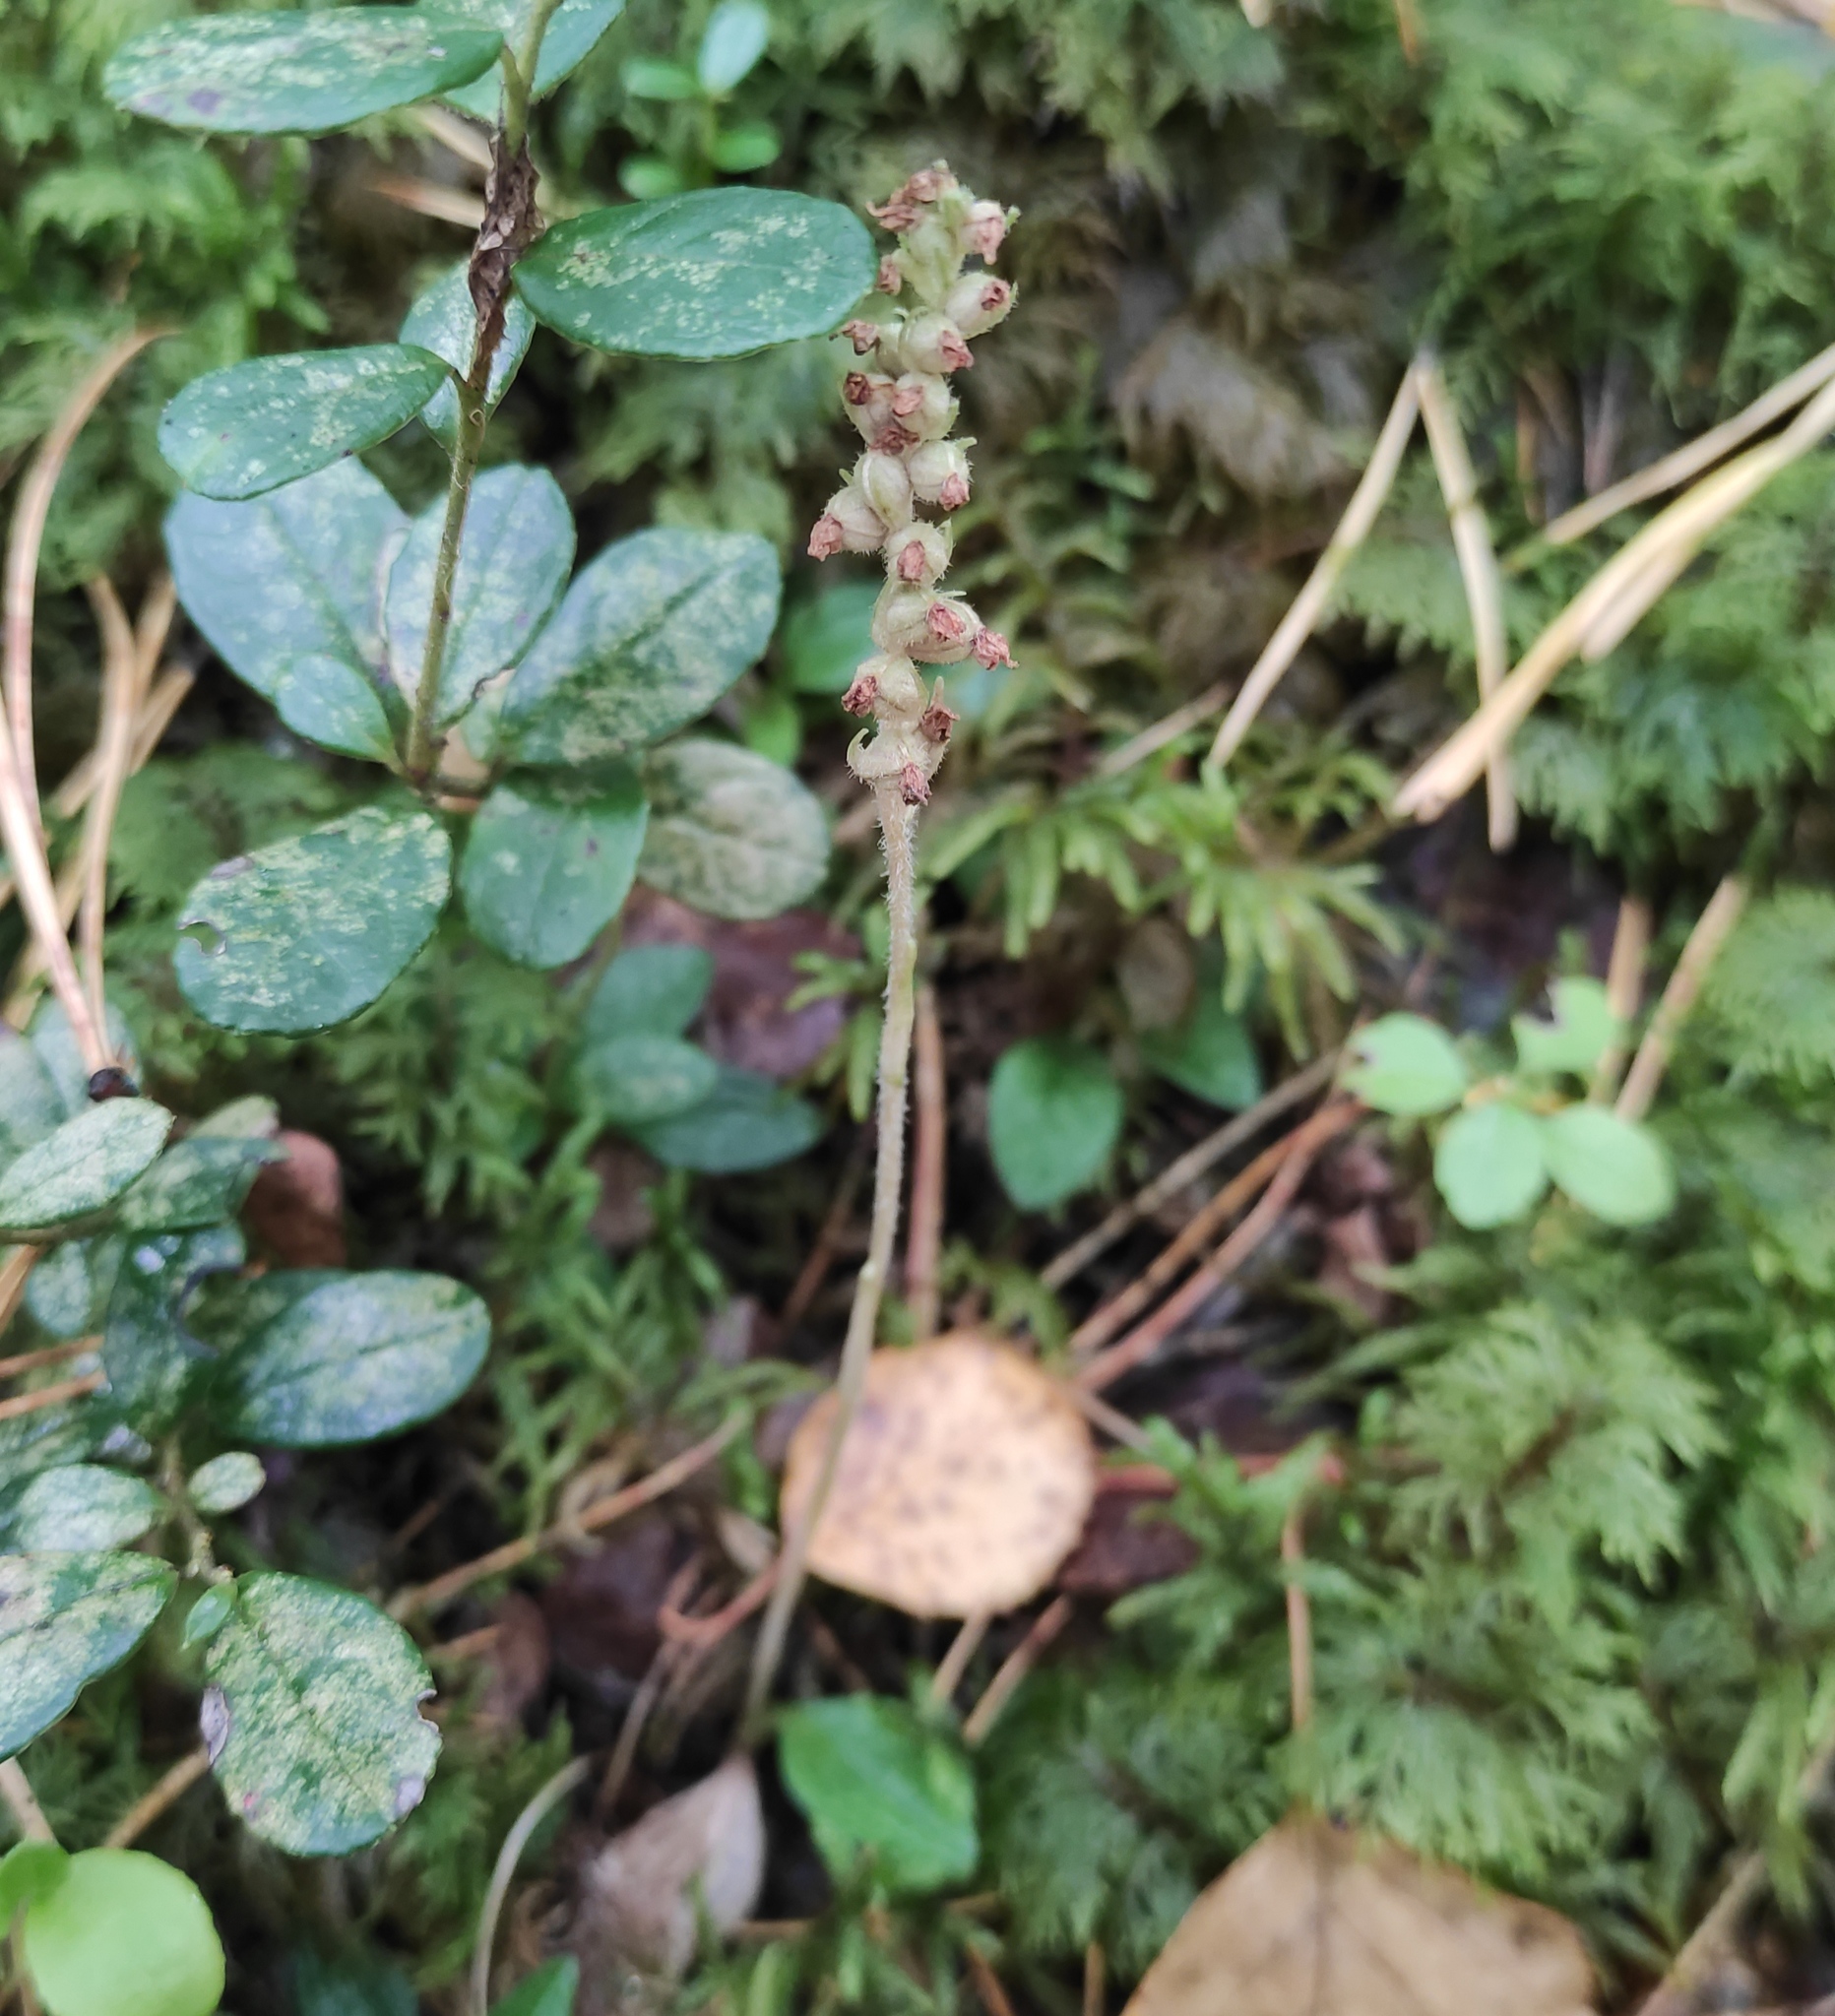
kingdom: Plantae
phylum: Tracheophyta
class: Liliopsida
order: Asparagales
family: Orchidaceae
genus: Goodyera
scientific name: Goodyera repens
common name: Creeping lady's-tresses
